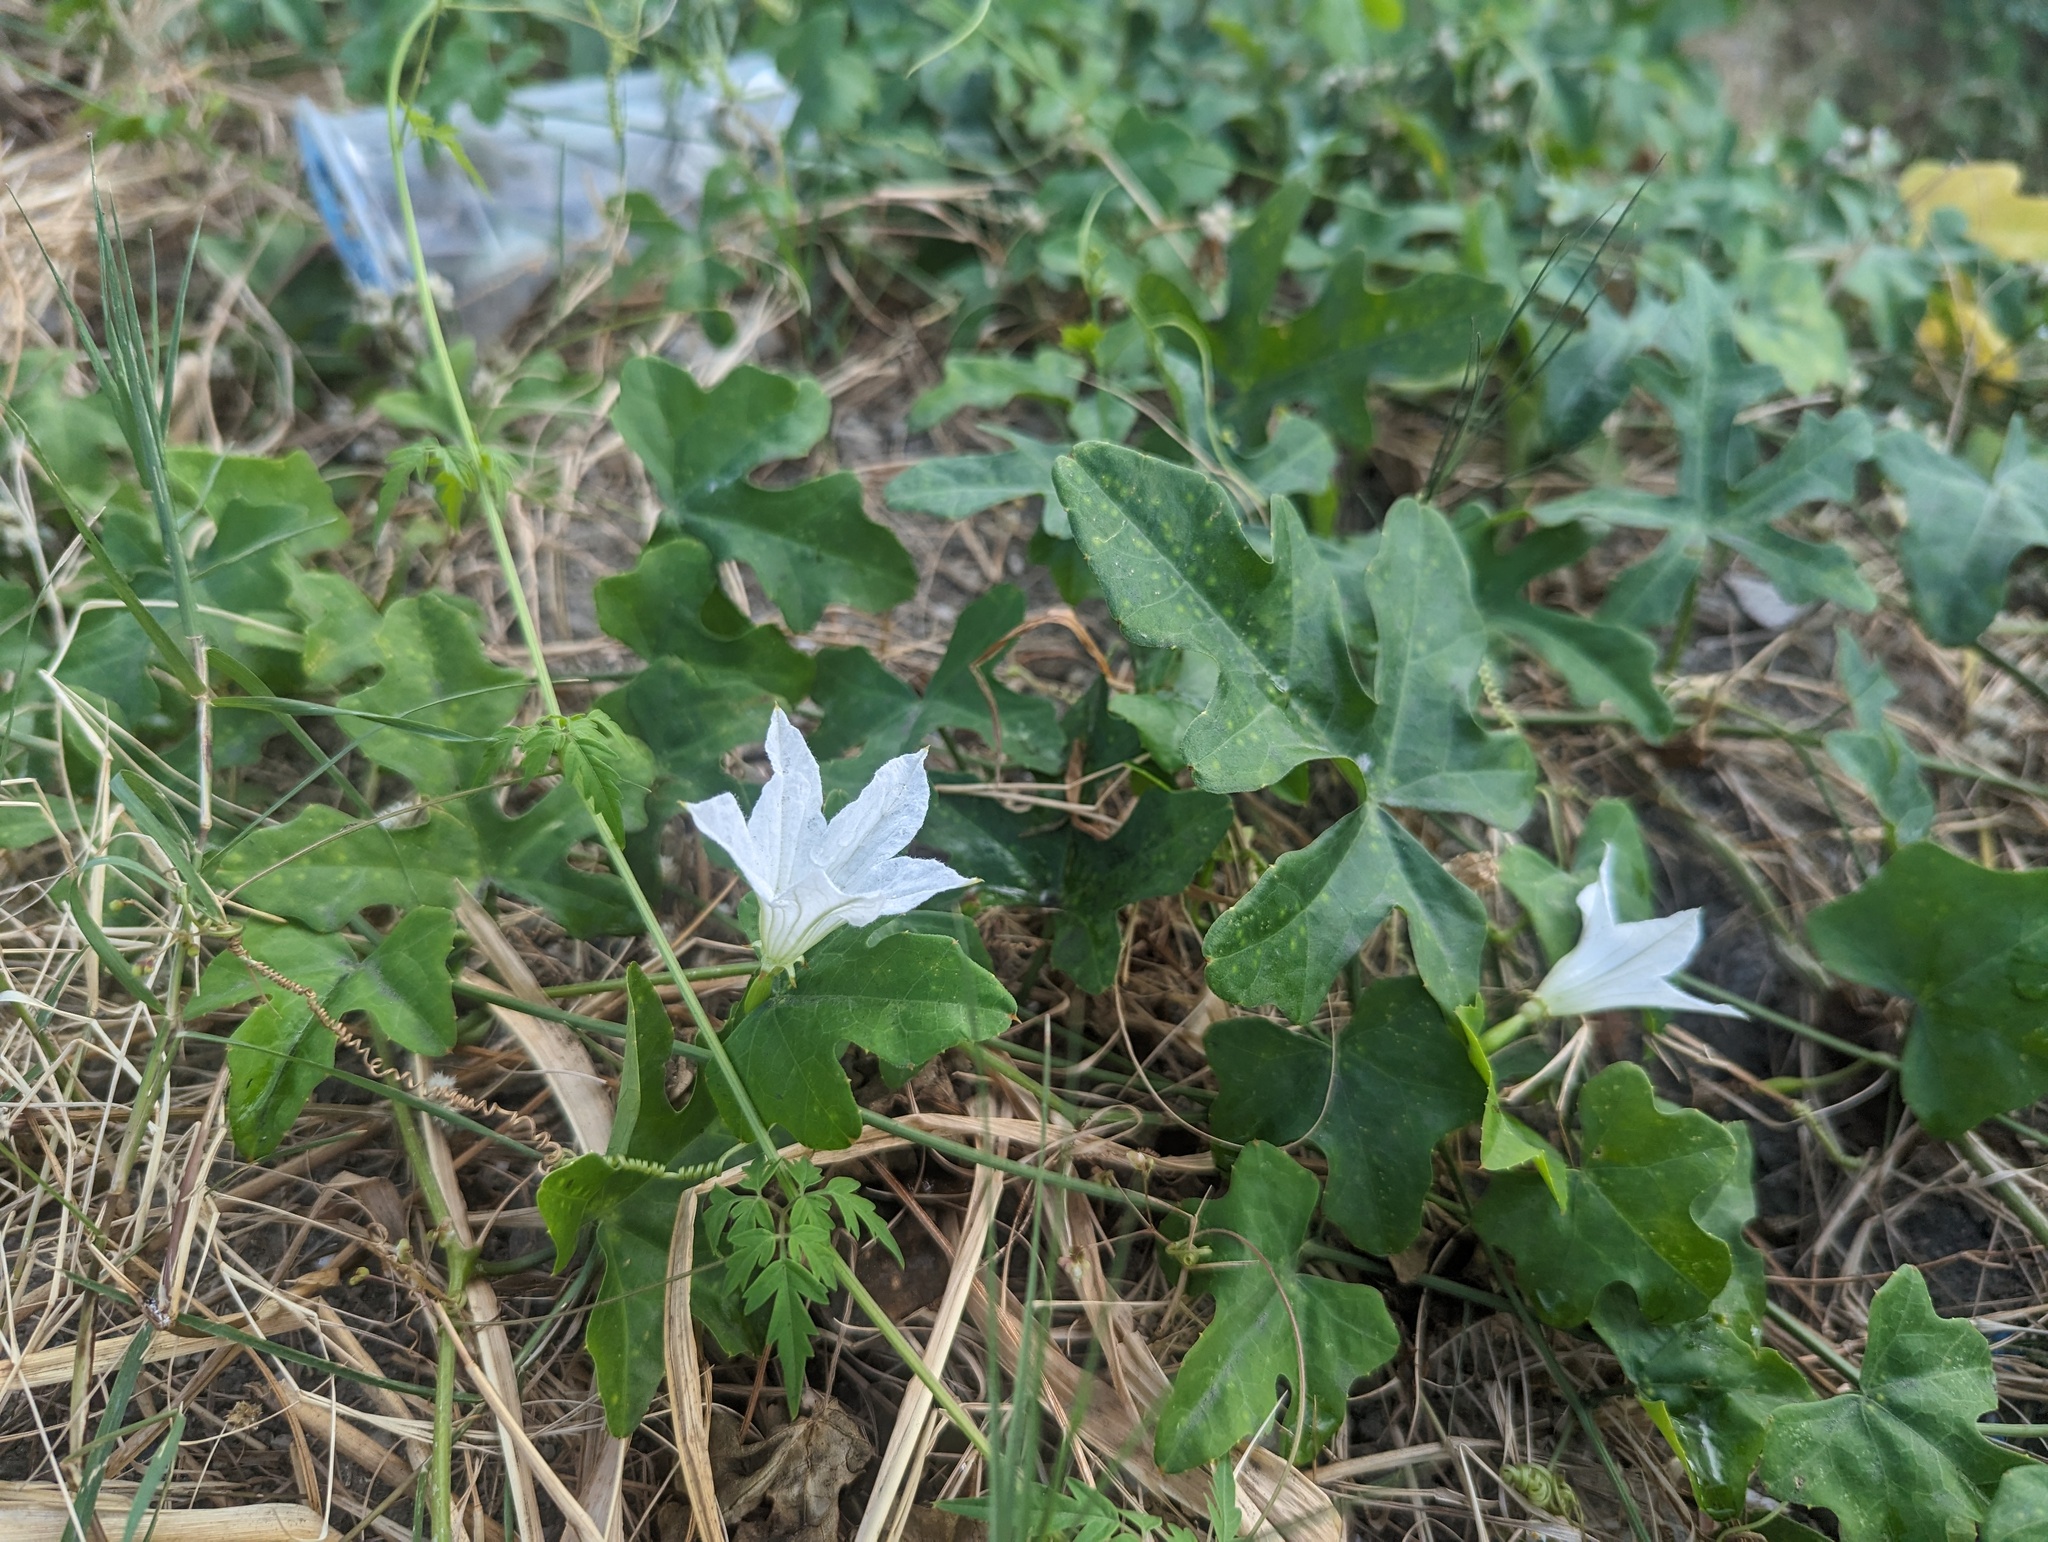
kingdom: Plantae
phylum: Tracheophyta
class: Magnoliopsida
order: Cucurbitales
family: Cucurbitaceae
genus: Coccinia
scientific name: Coccinia grandis
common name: Ivy gourd
